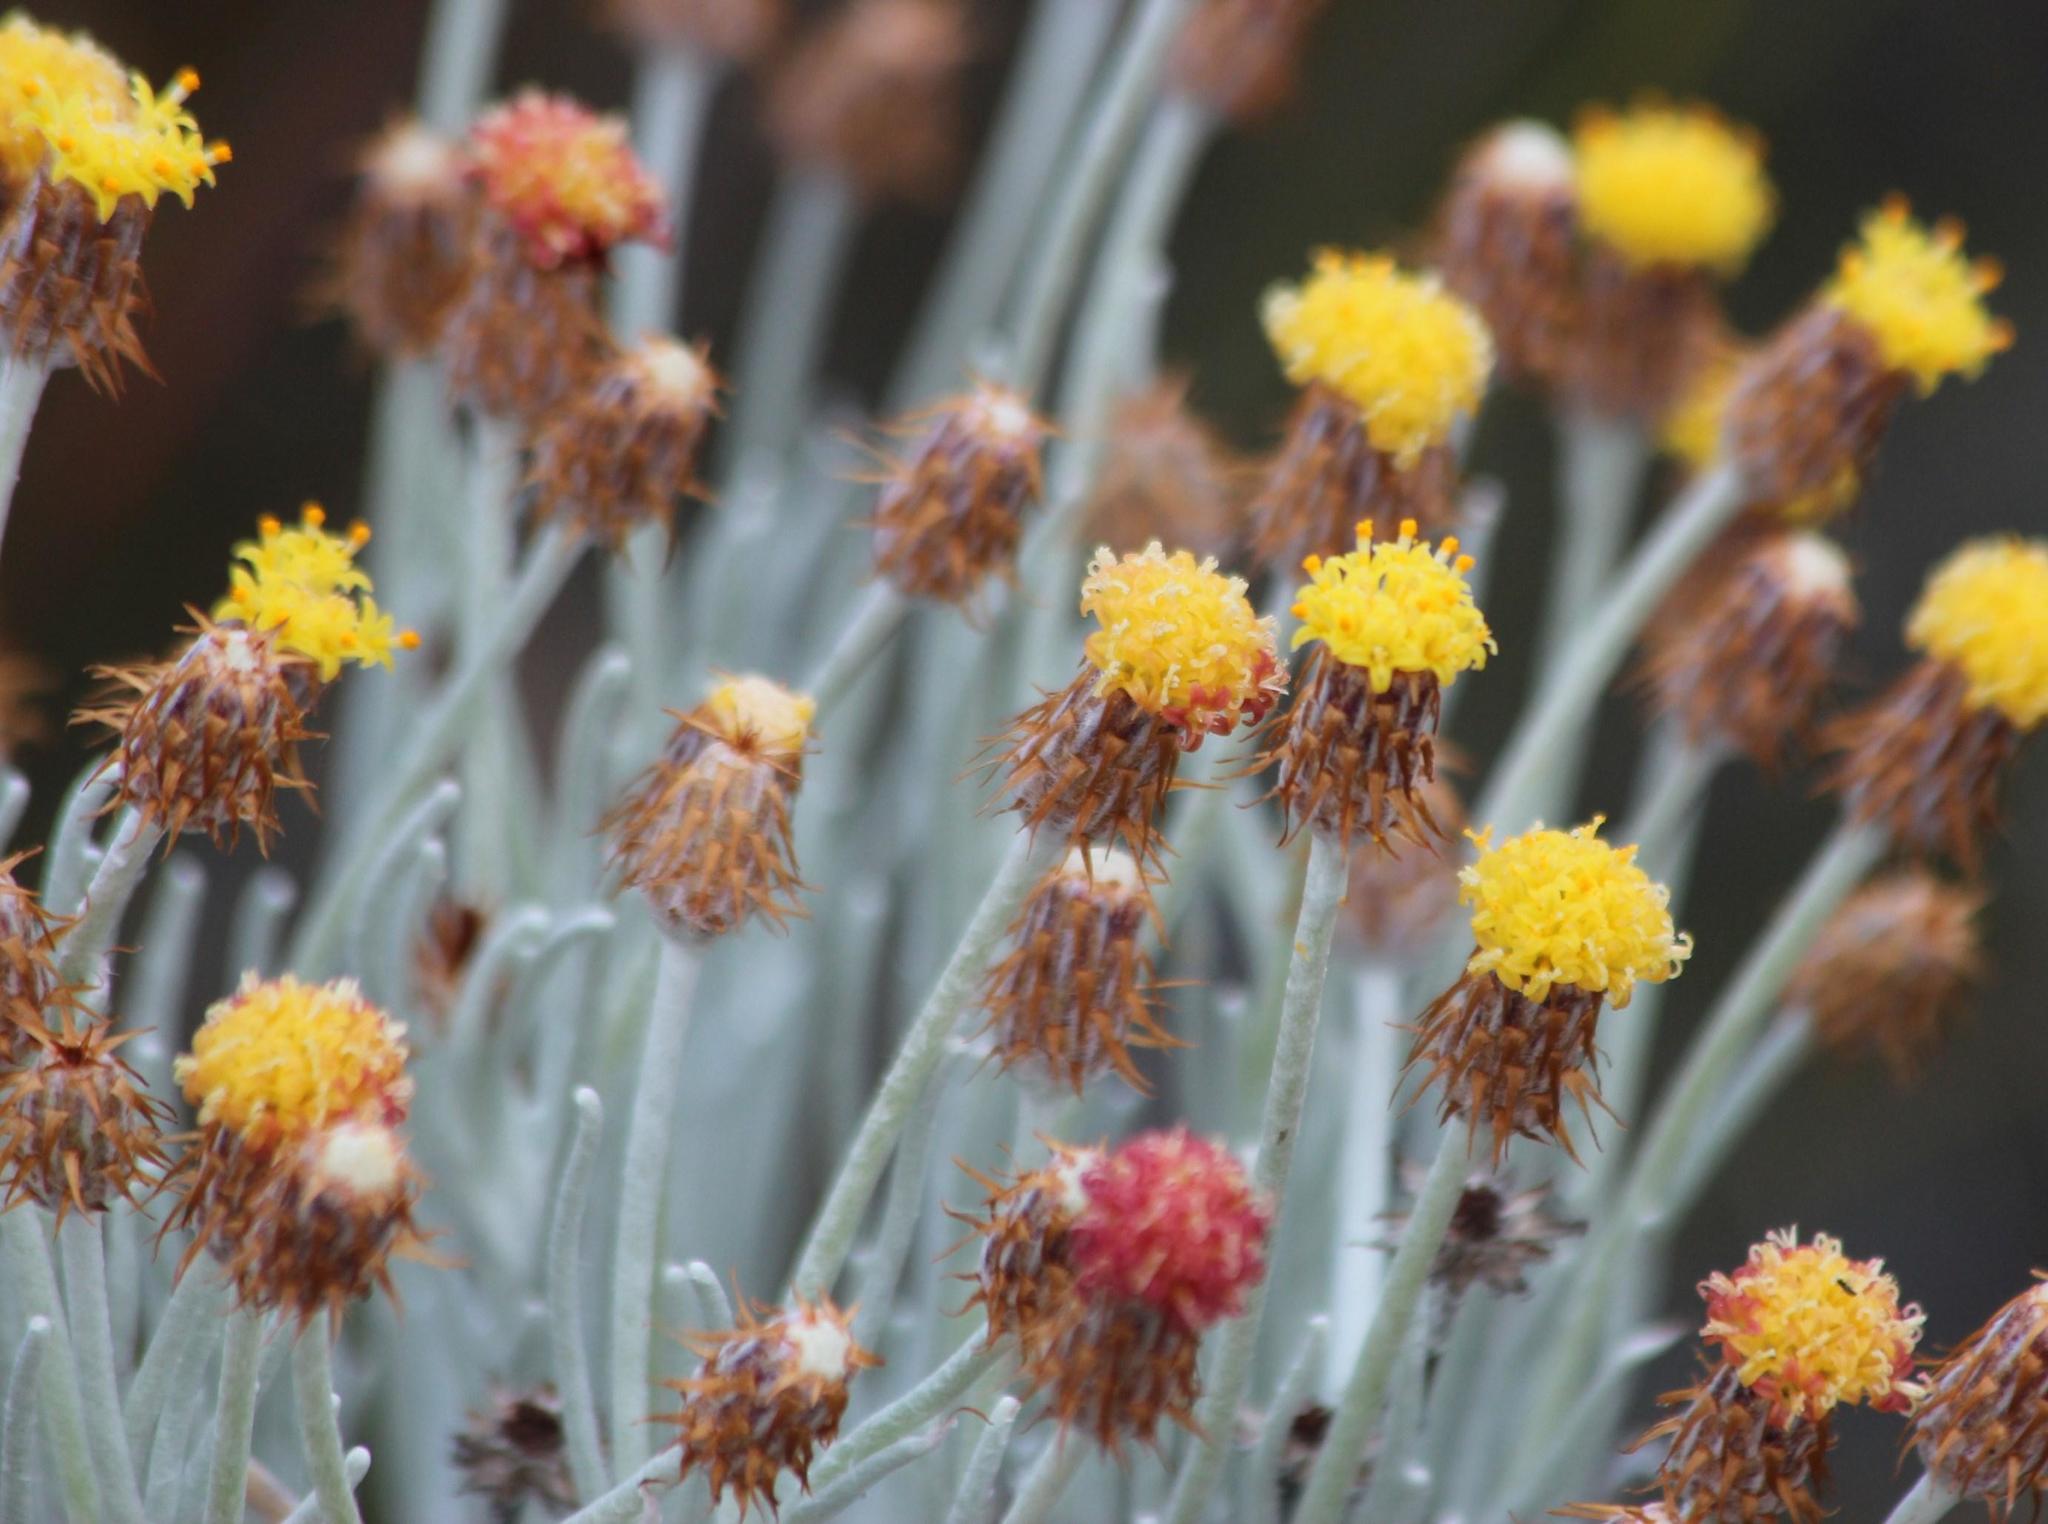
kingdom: Plantae
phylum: Tracheophyta
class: Magnoliopsida
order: Asterales
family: Asteraceae
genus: Syncarpha
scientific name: Syncarpha gnaphaloides
